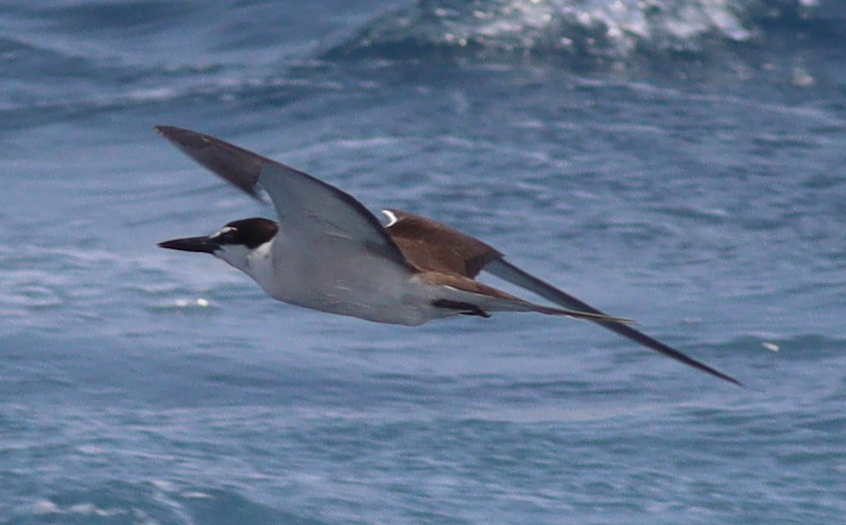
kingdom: Animalia
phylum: Chordata
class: Aves
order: Charadriiformes
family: Laridae
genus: Onychoprion
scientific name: Onychoprion anaethetus
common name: Bridled tern
